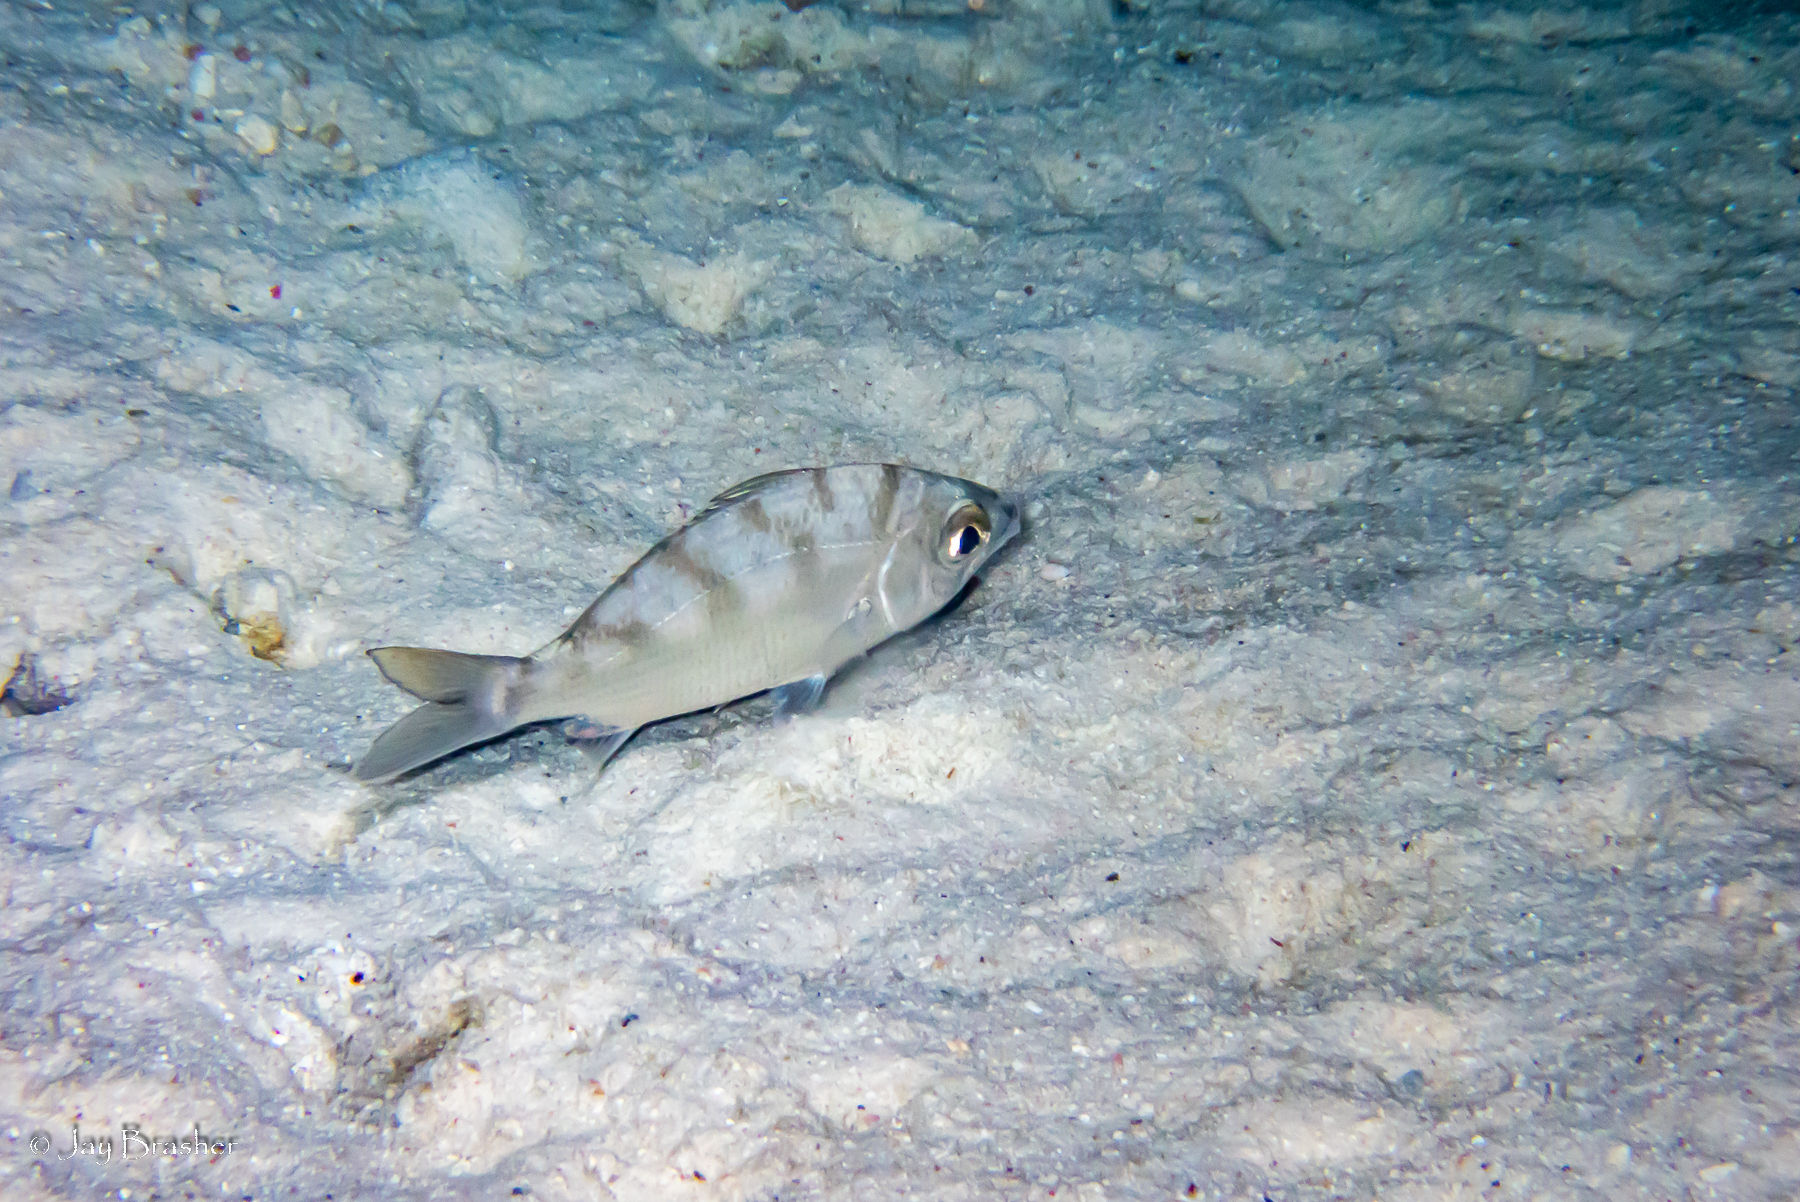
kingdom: Animalia
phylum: Chordata
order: Perciformes
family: Gerreidae
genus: Gerres
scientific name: Gerres cinereus
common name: Hedow
